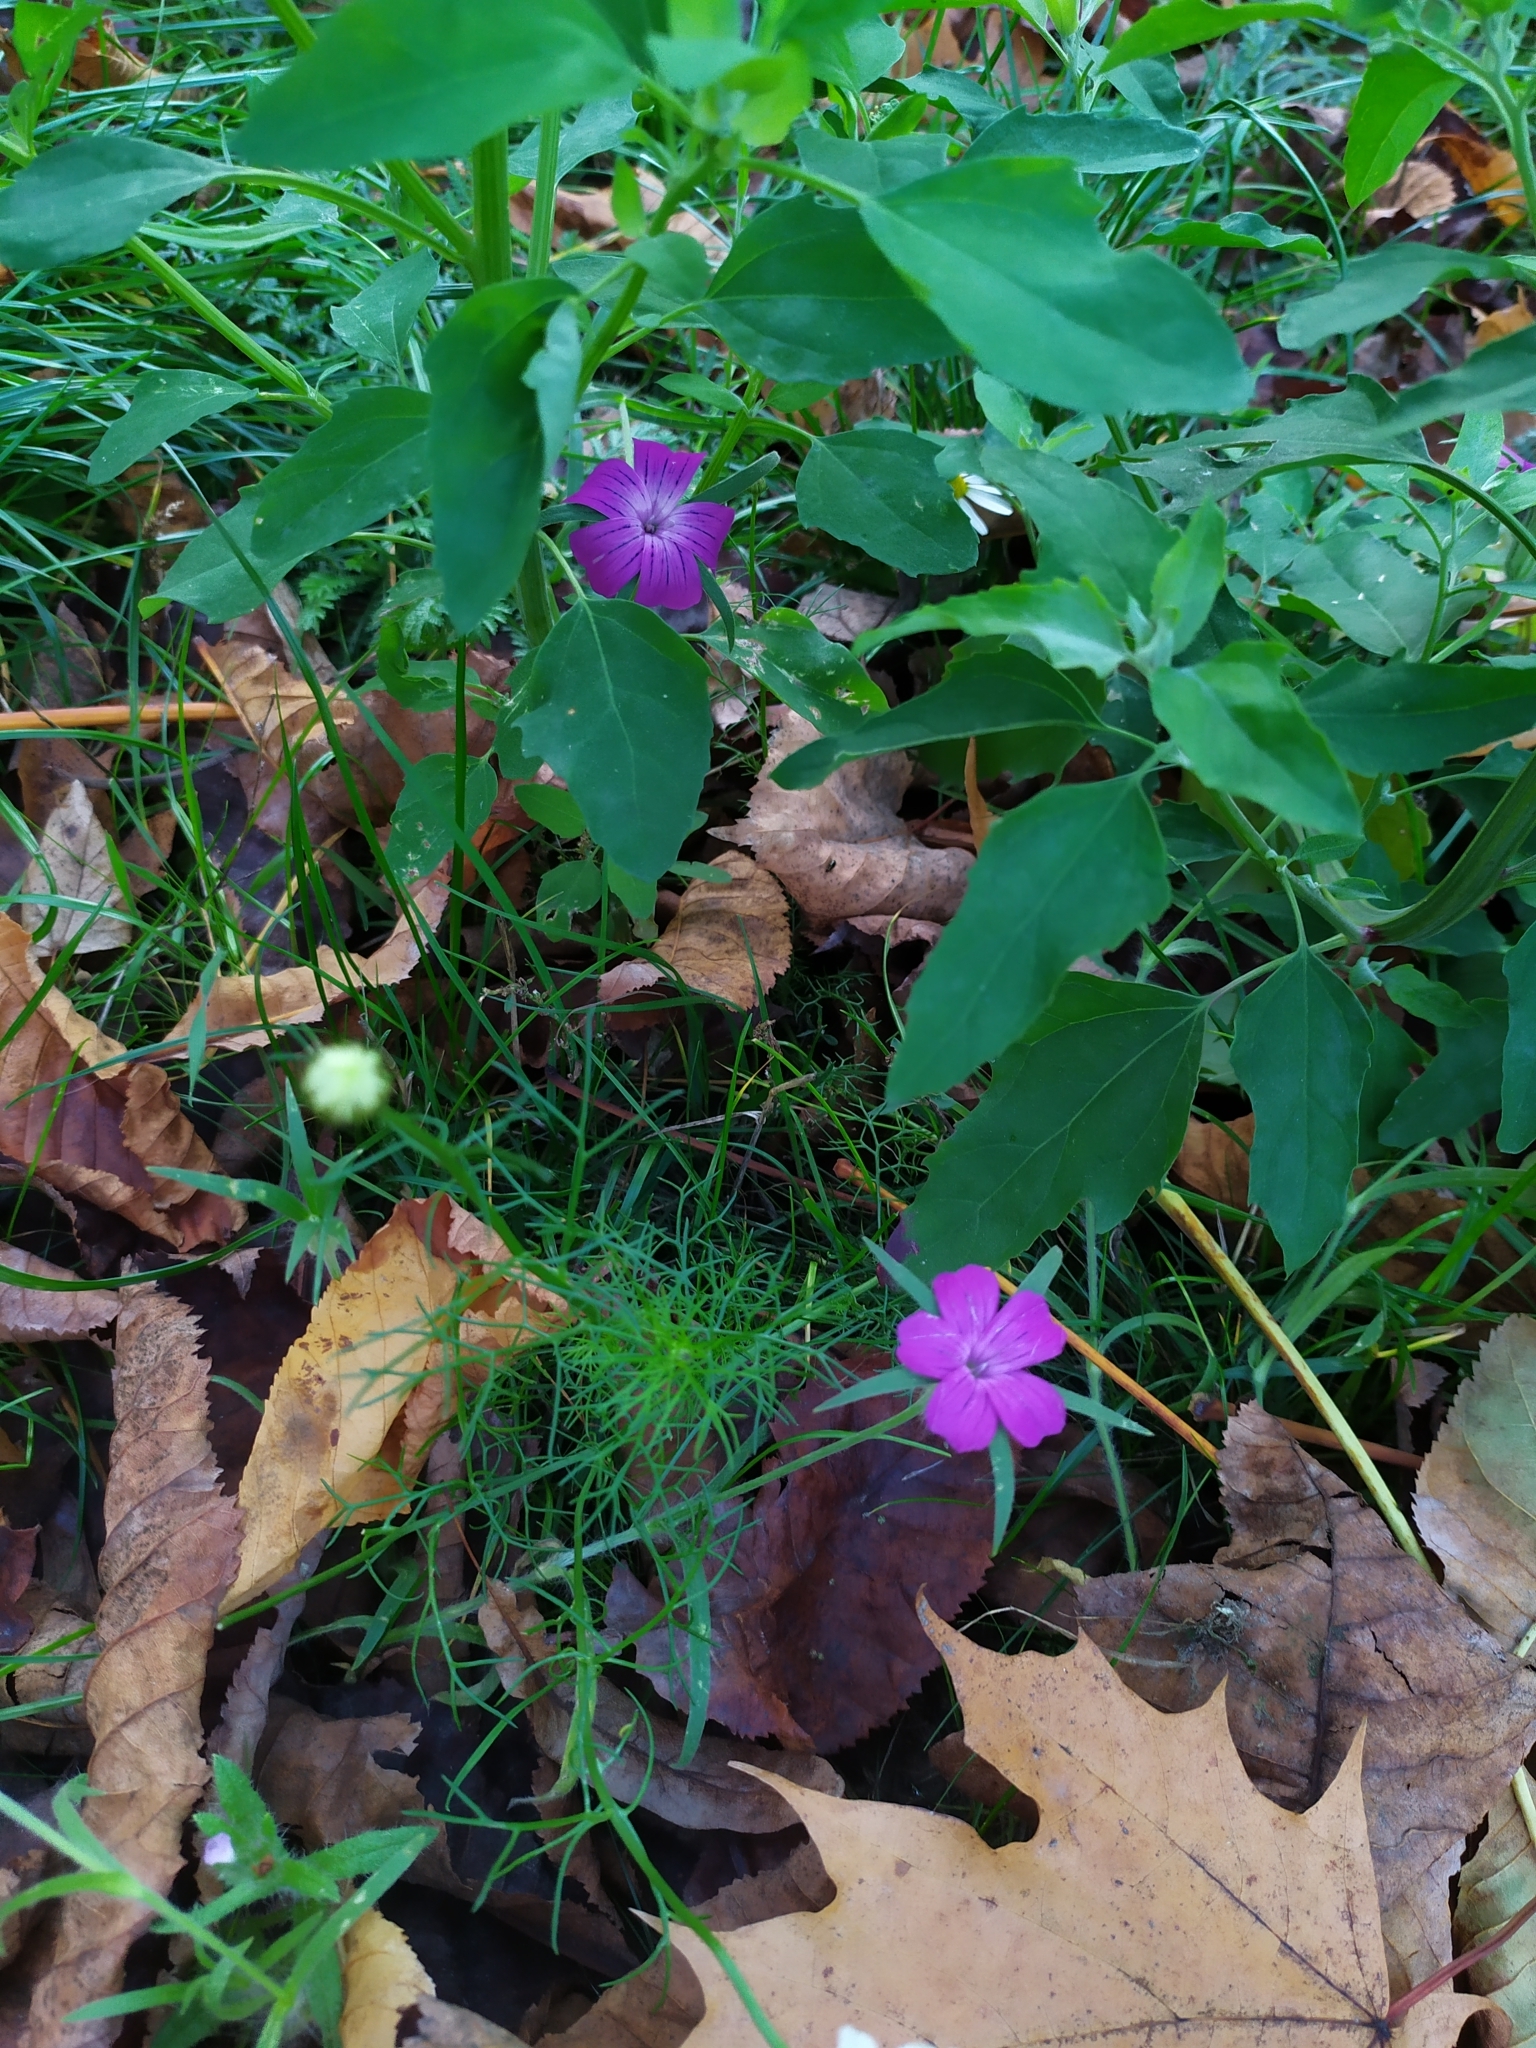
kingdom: Plantae
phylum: Tracheophyta
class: Magnoliopsida
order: Caryophyllales
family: Caryophyllaceae
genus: Agrostemma
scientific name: Agrostemma githago
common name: Common corncockle
